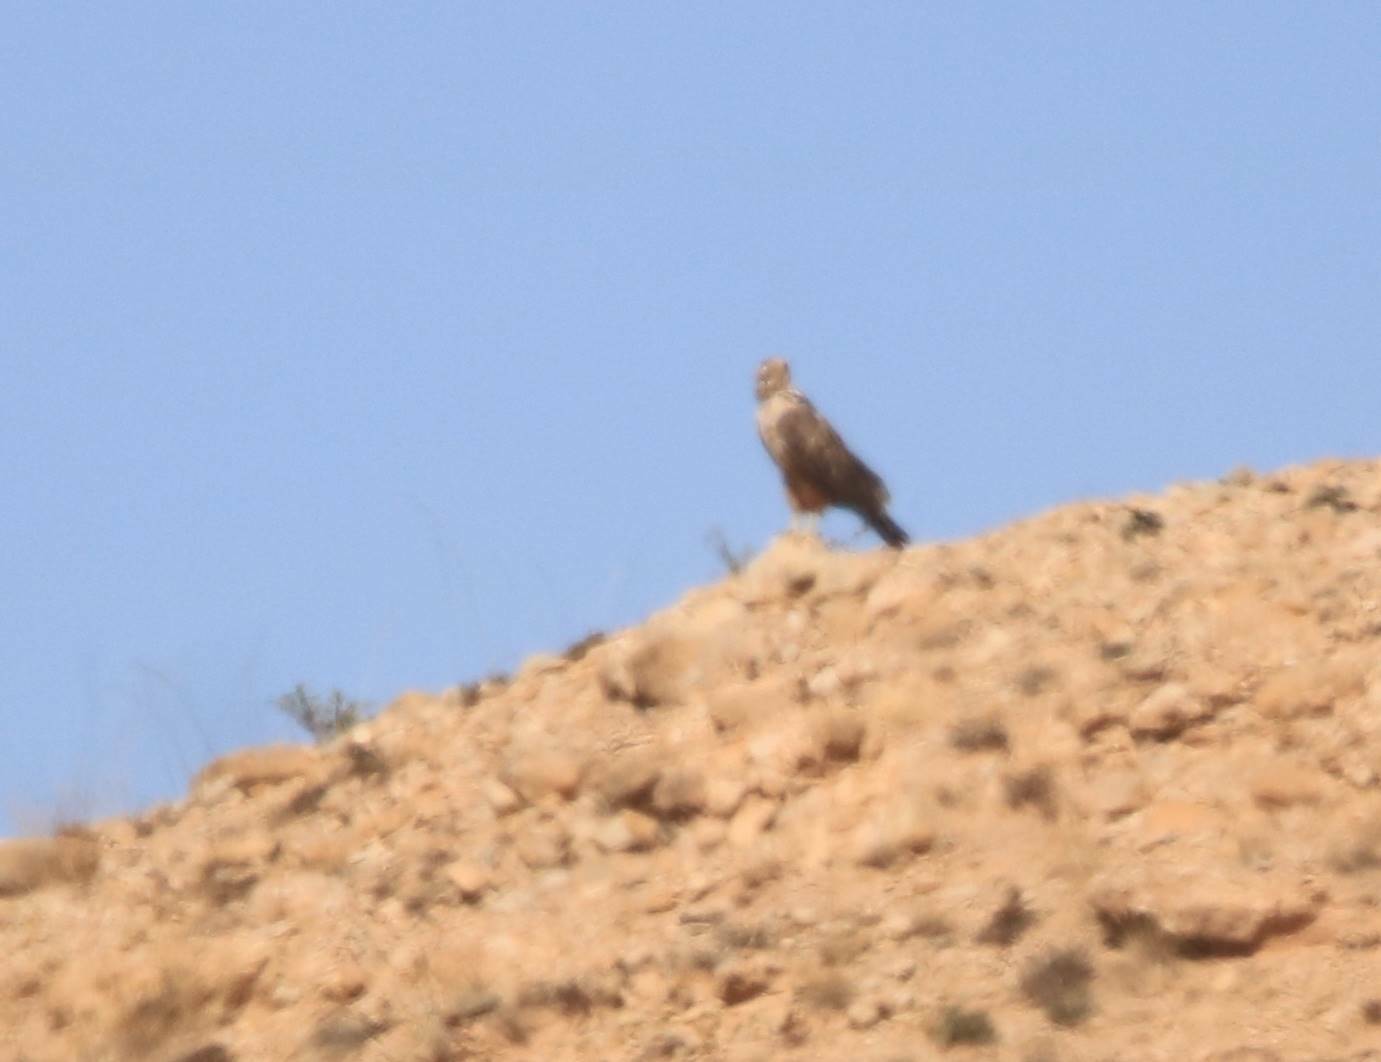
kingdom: Animalia
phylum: Chordata
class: Aves
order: Accipitriformes
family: Accipitridae
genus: Buteo
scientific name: Buteo rufinus
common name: Long-legged buzzard
